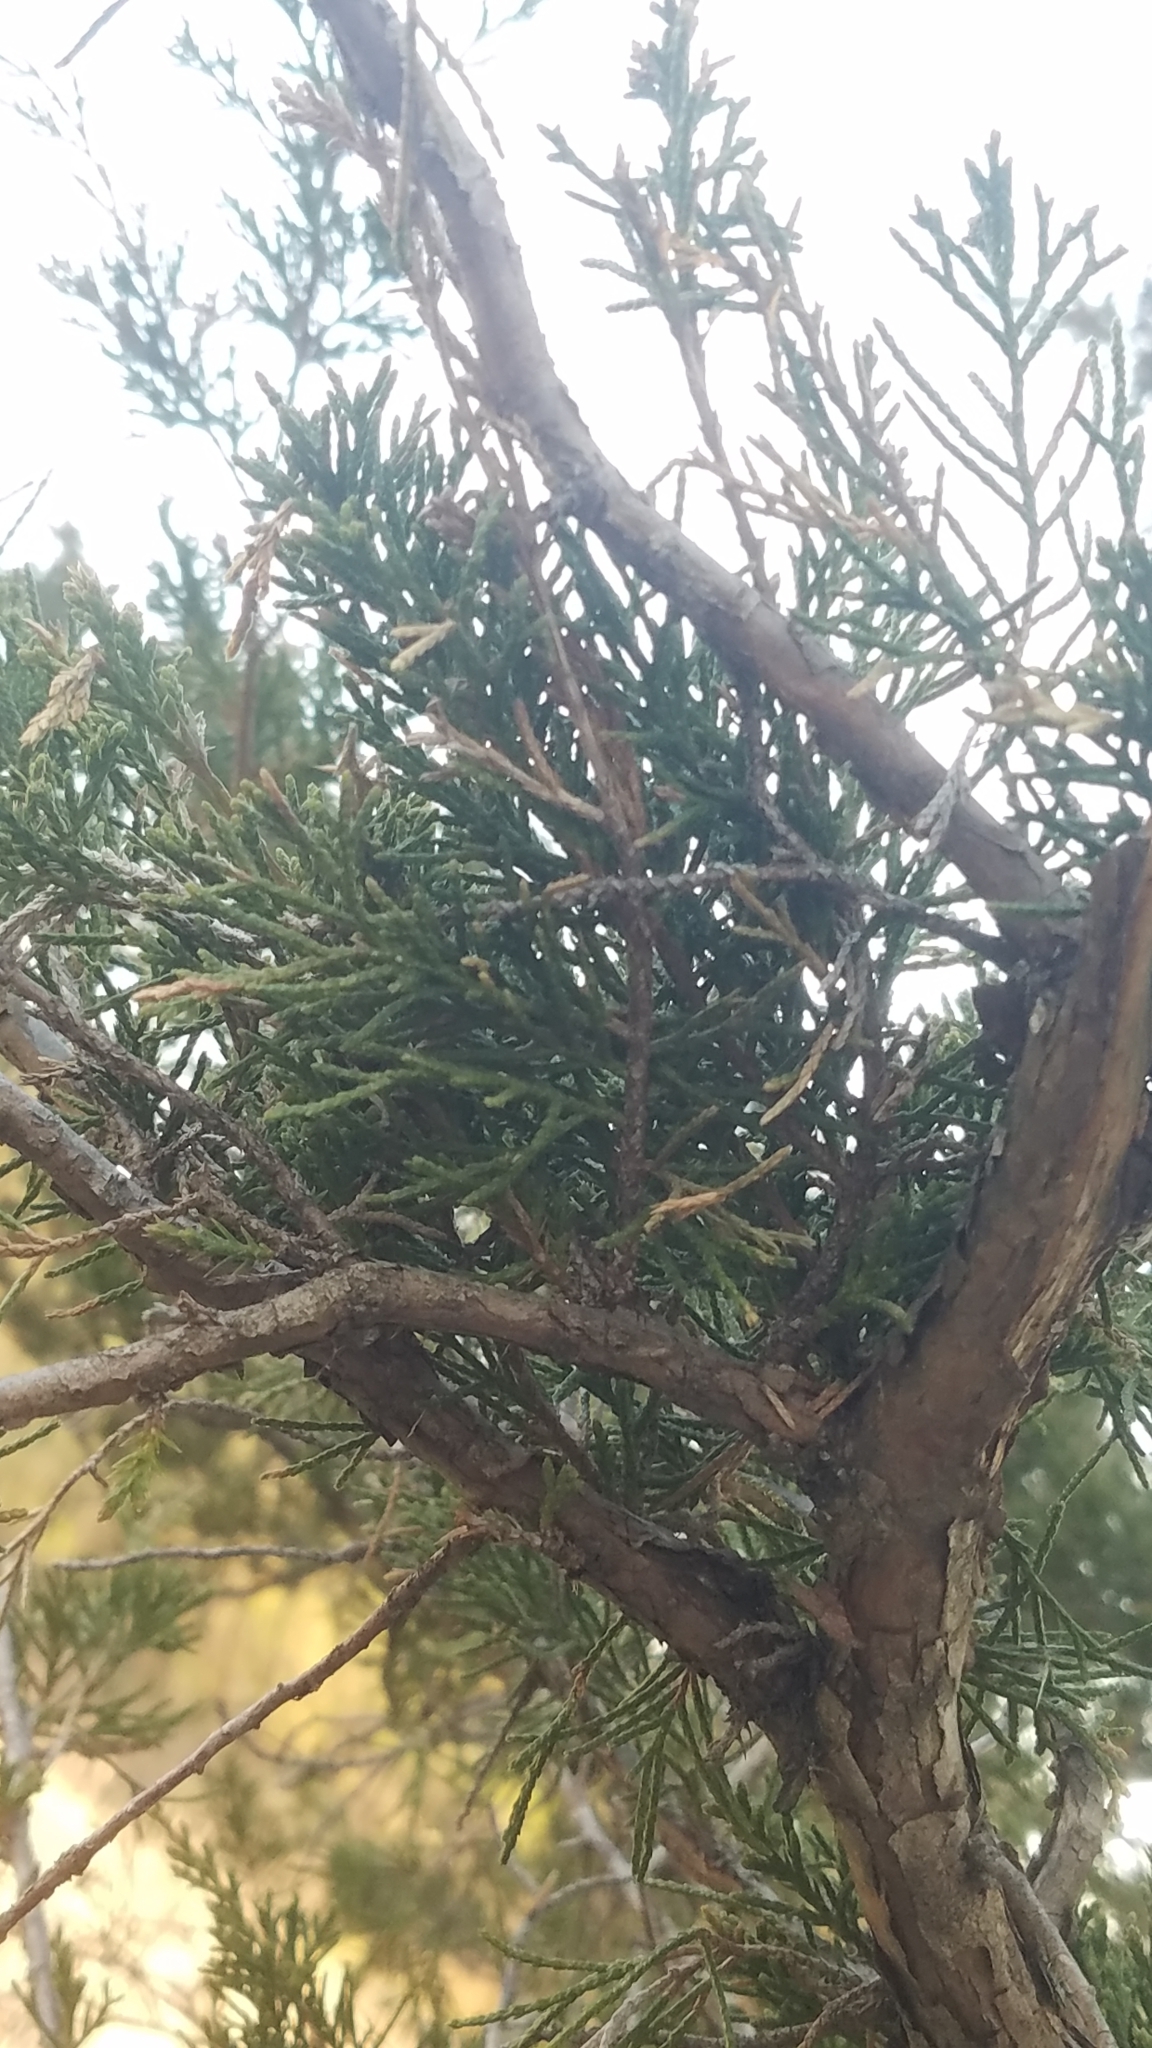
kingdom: Plantae
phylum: Tracheophyta
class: Pinopsida
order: Pinales
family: Cupressaceae
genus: Juniperus
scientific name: Juniperus virginiana
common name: Red juniper
